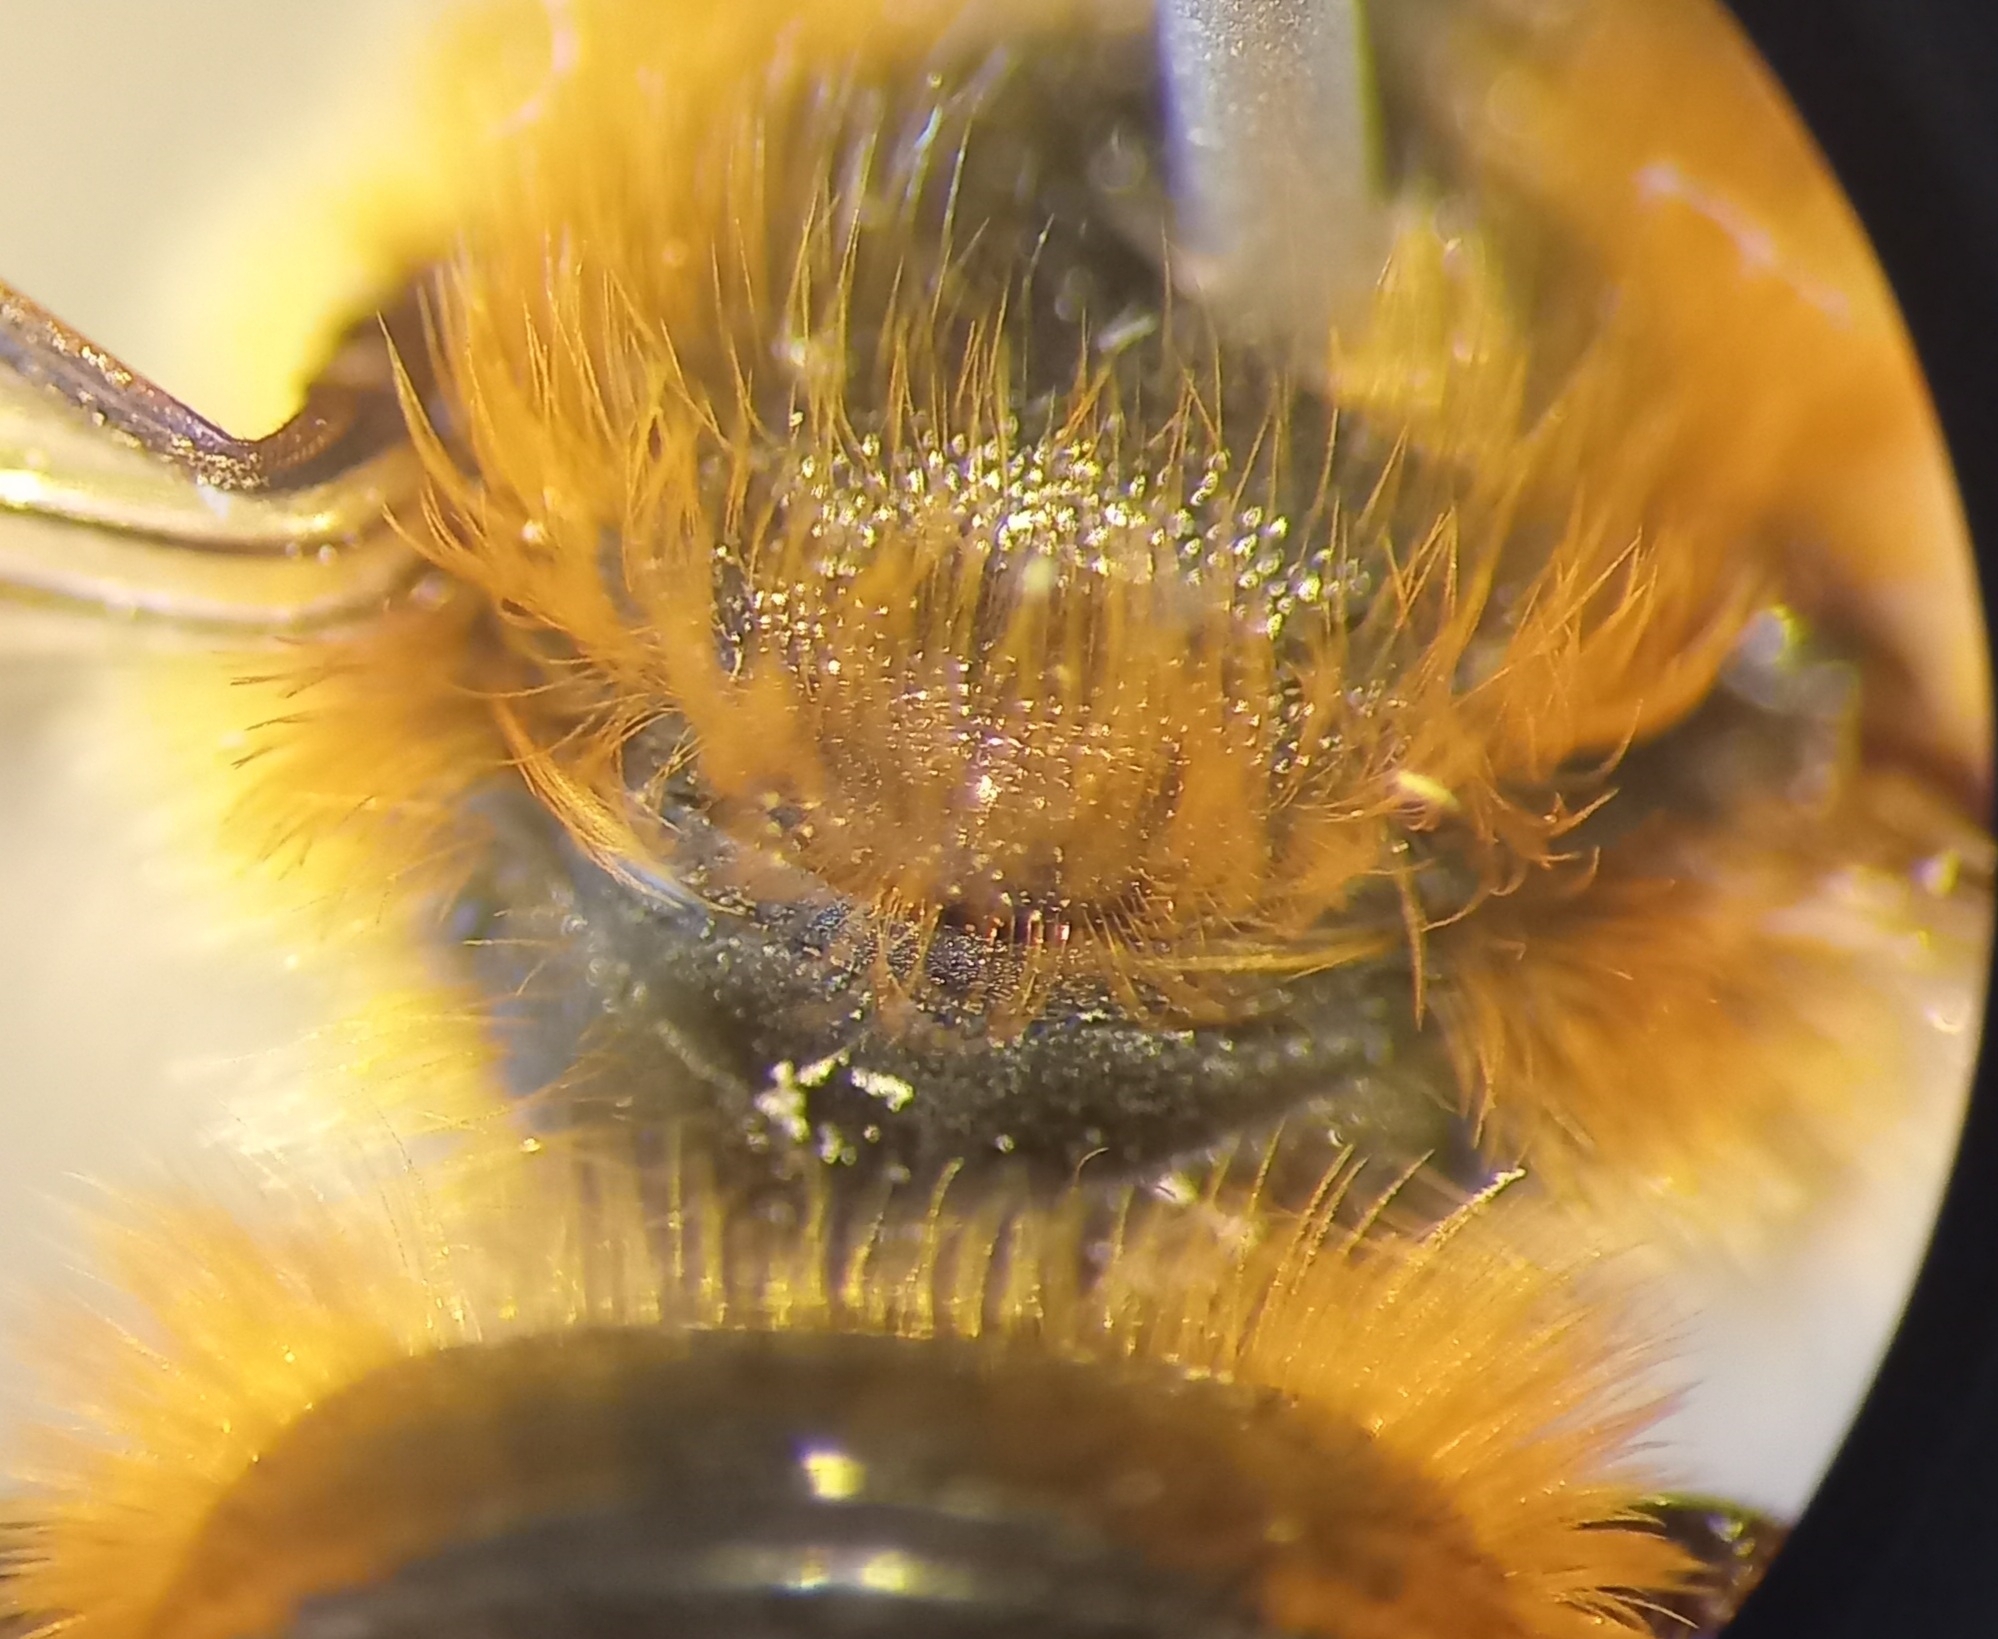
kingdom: Animalia
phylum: Arthropoda
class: Insecta
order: Hymenoptera
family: Megachilidae
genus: Osmia
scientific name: Osmia aurulenta
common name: Gold-fringed mason bee
